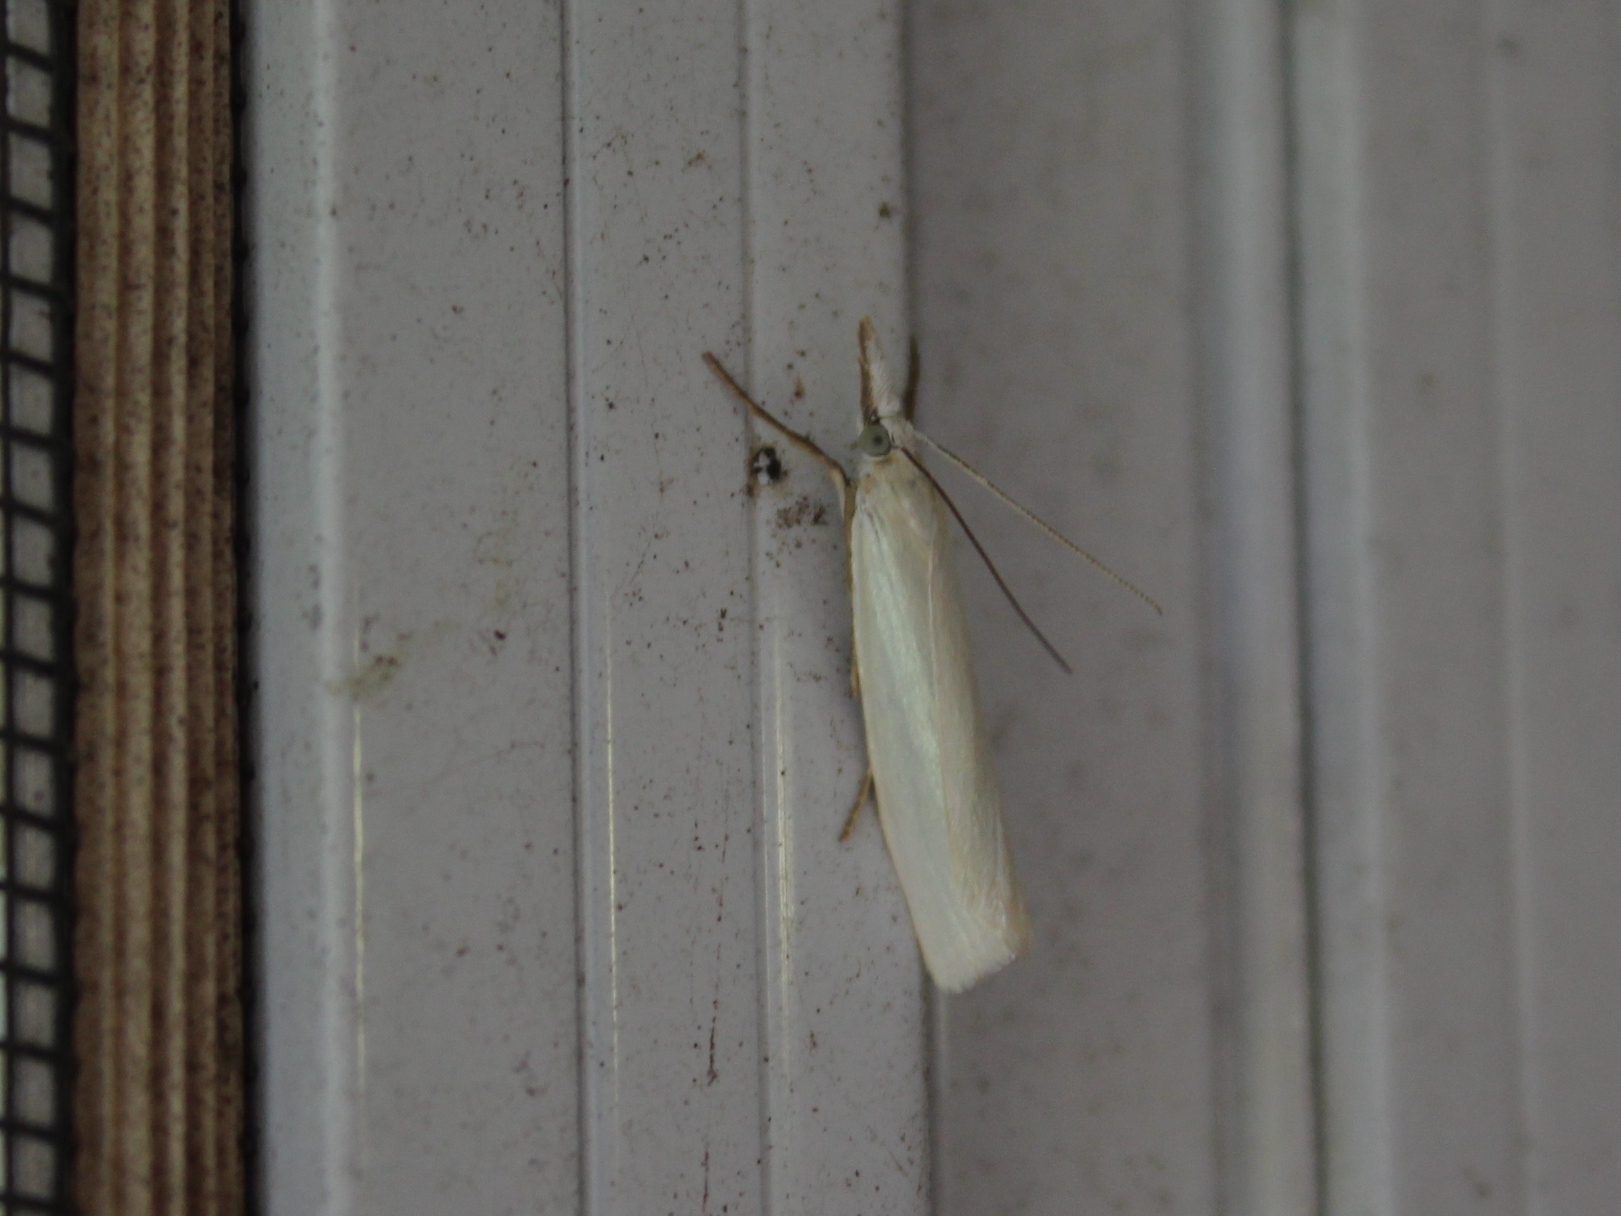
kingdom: Animalia
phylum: Arthropoda
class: Insecta
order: Lepidoptera
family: Crambidae
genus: Crambus
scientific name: Crambus perlellus
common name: Yellow satin veneer
